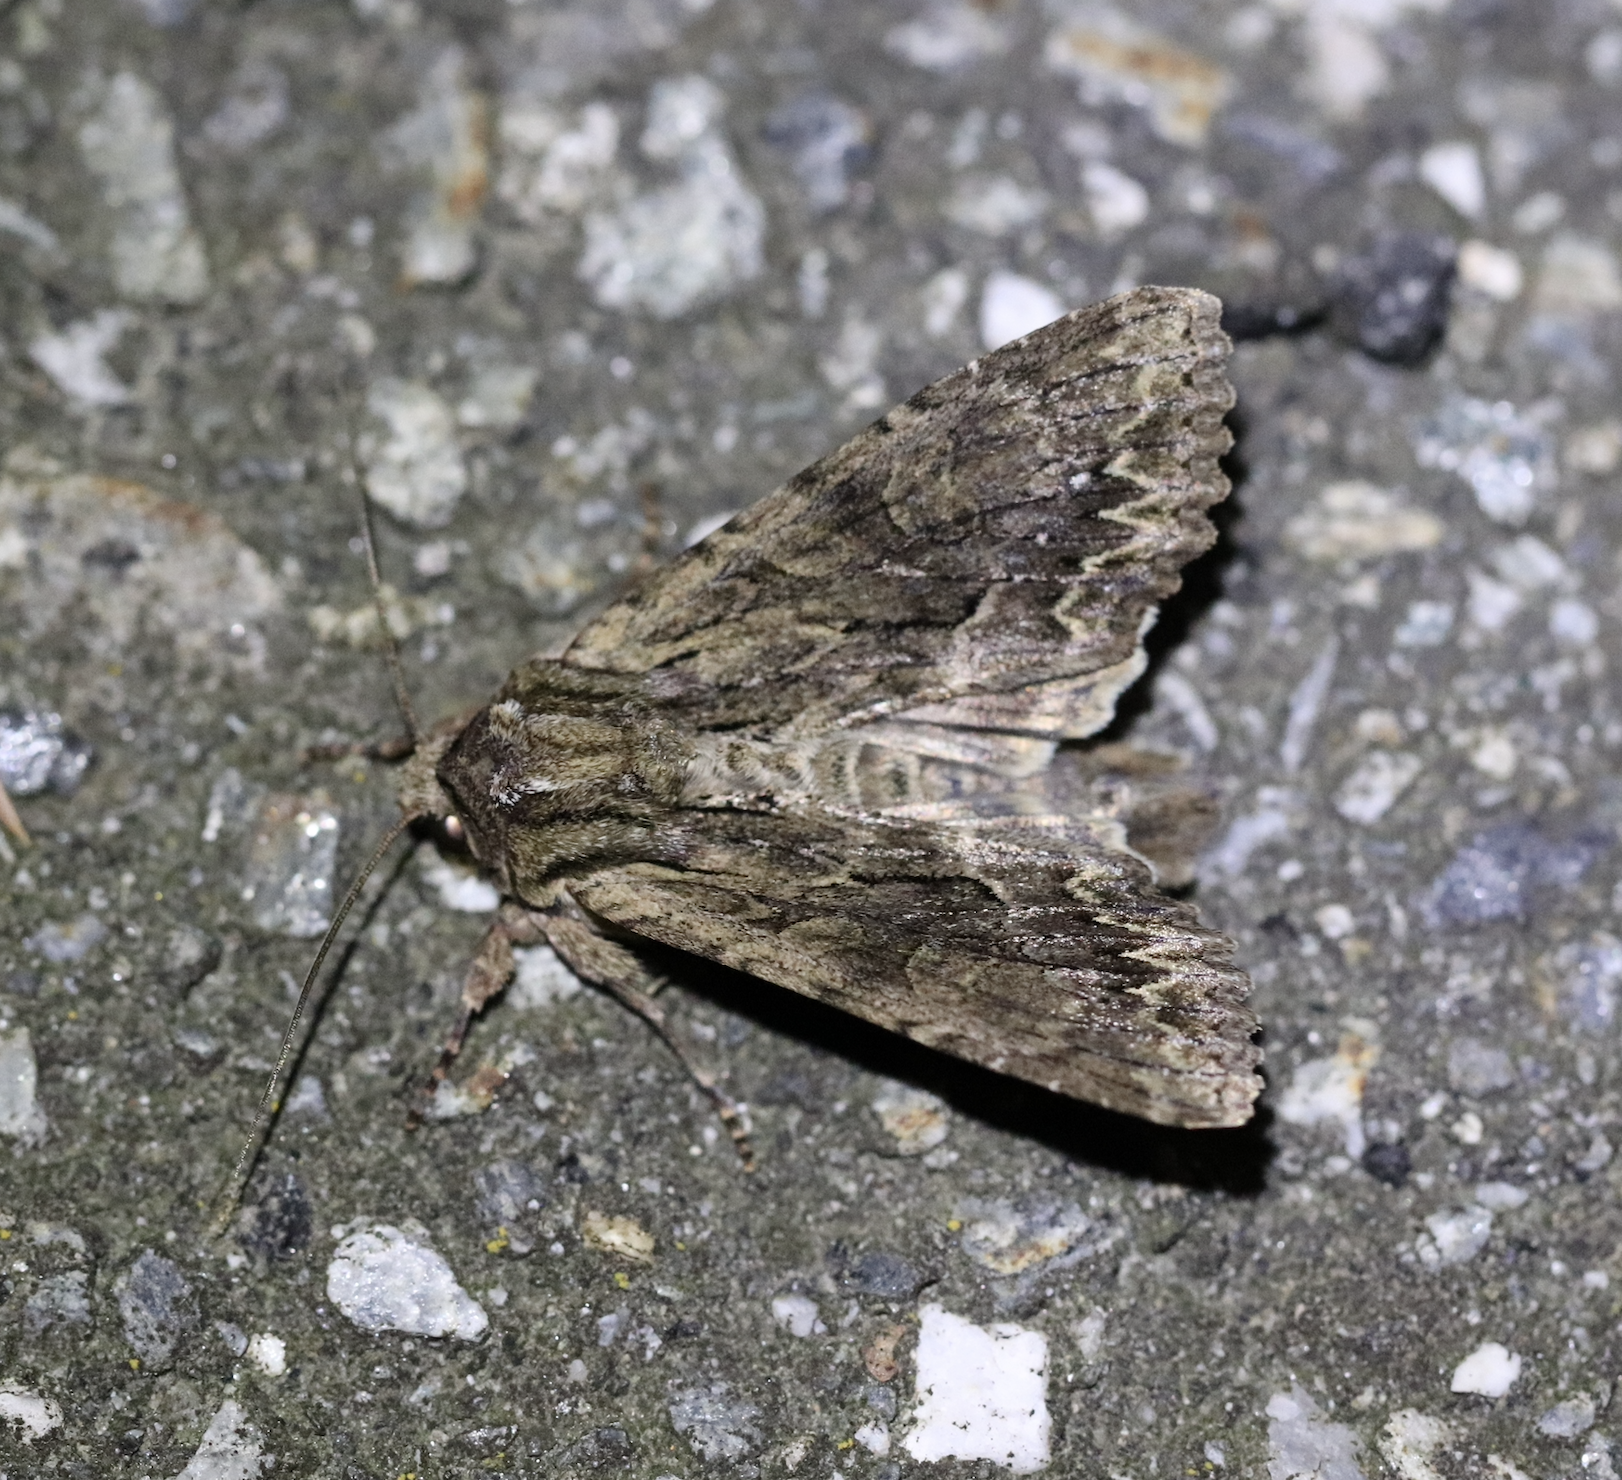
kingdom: Animalia
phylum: Arthropoda
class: Insecta
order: Lepidoptera
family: Noctuidae
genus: Apamea
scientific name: Apamea monoglypha
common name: Dark arches
